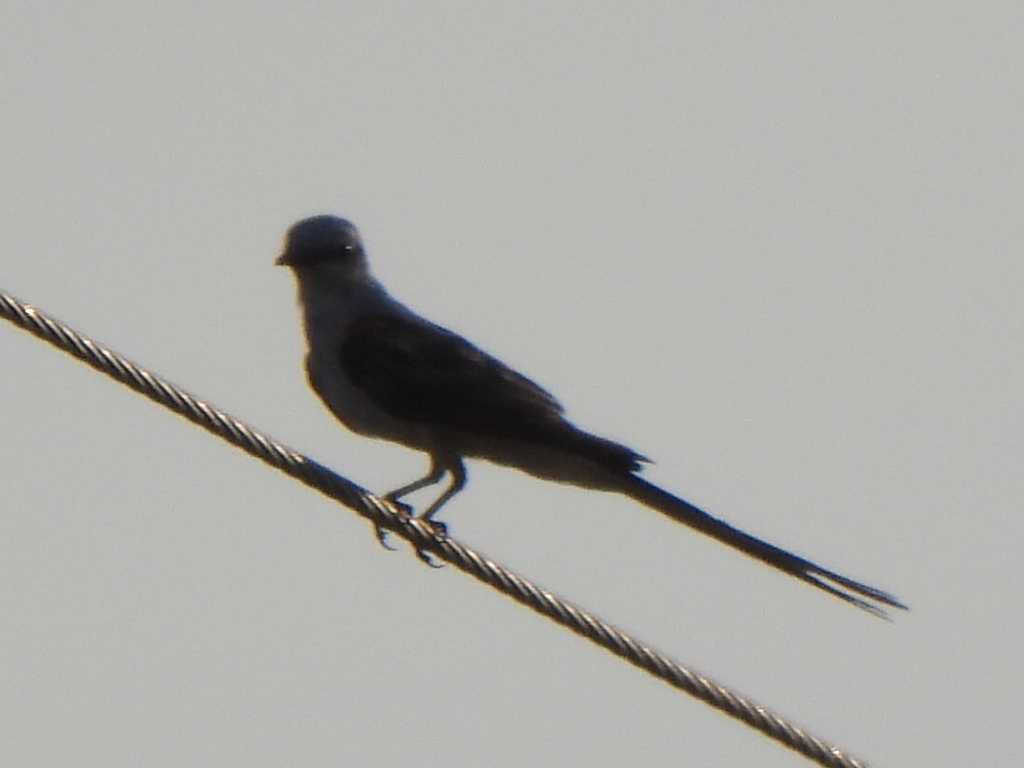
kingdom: Animalia
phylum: Chordata
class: Aves
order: Passeriformes
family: Tyrannidae
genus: Tyrannus
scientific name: Tyrannus forficatus
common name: Scissor-tailed flycatcher
